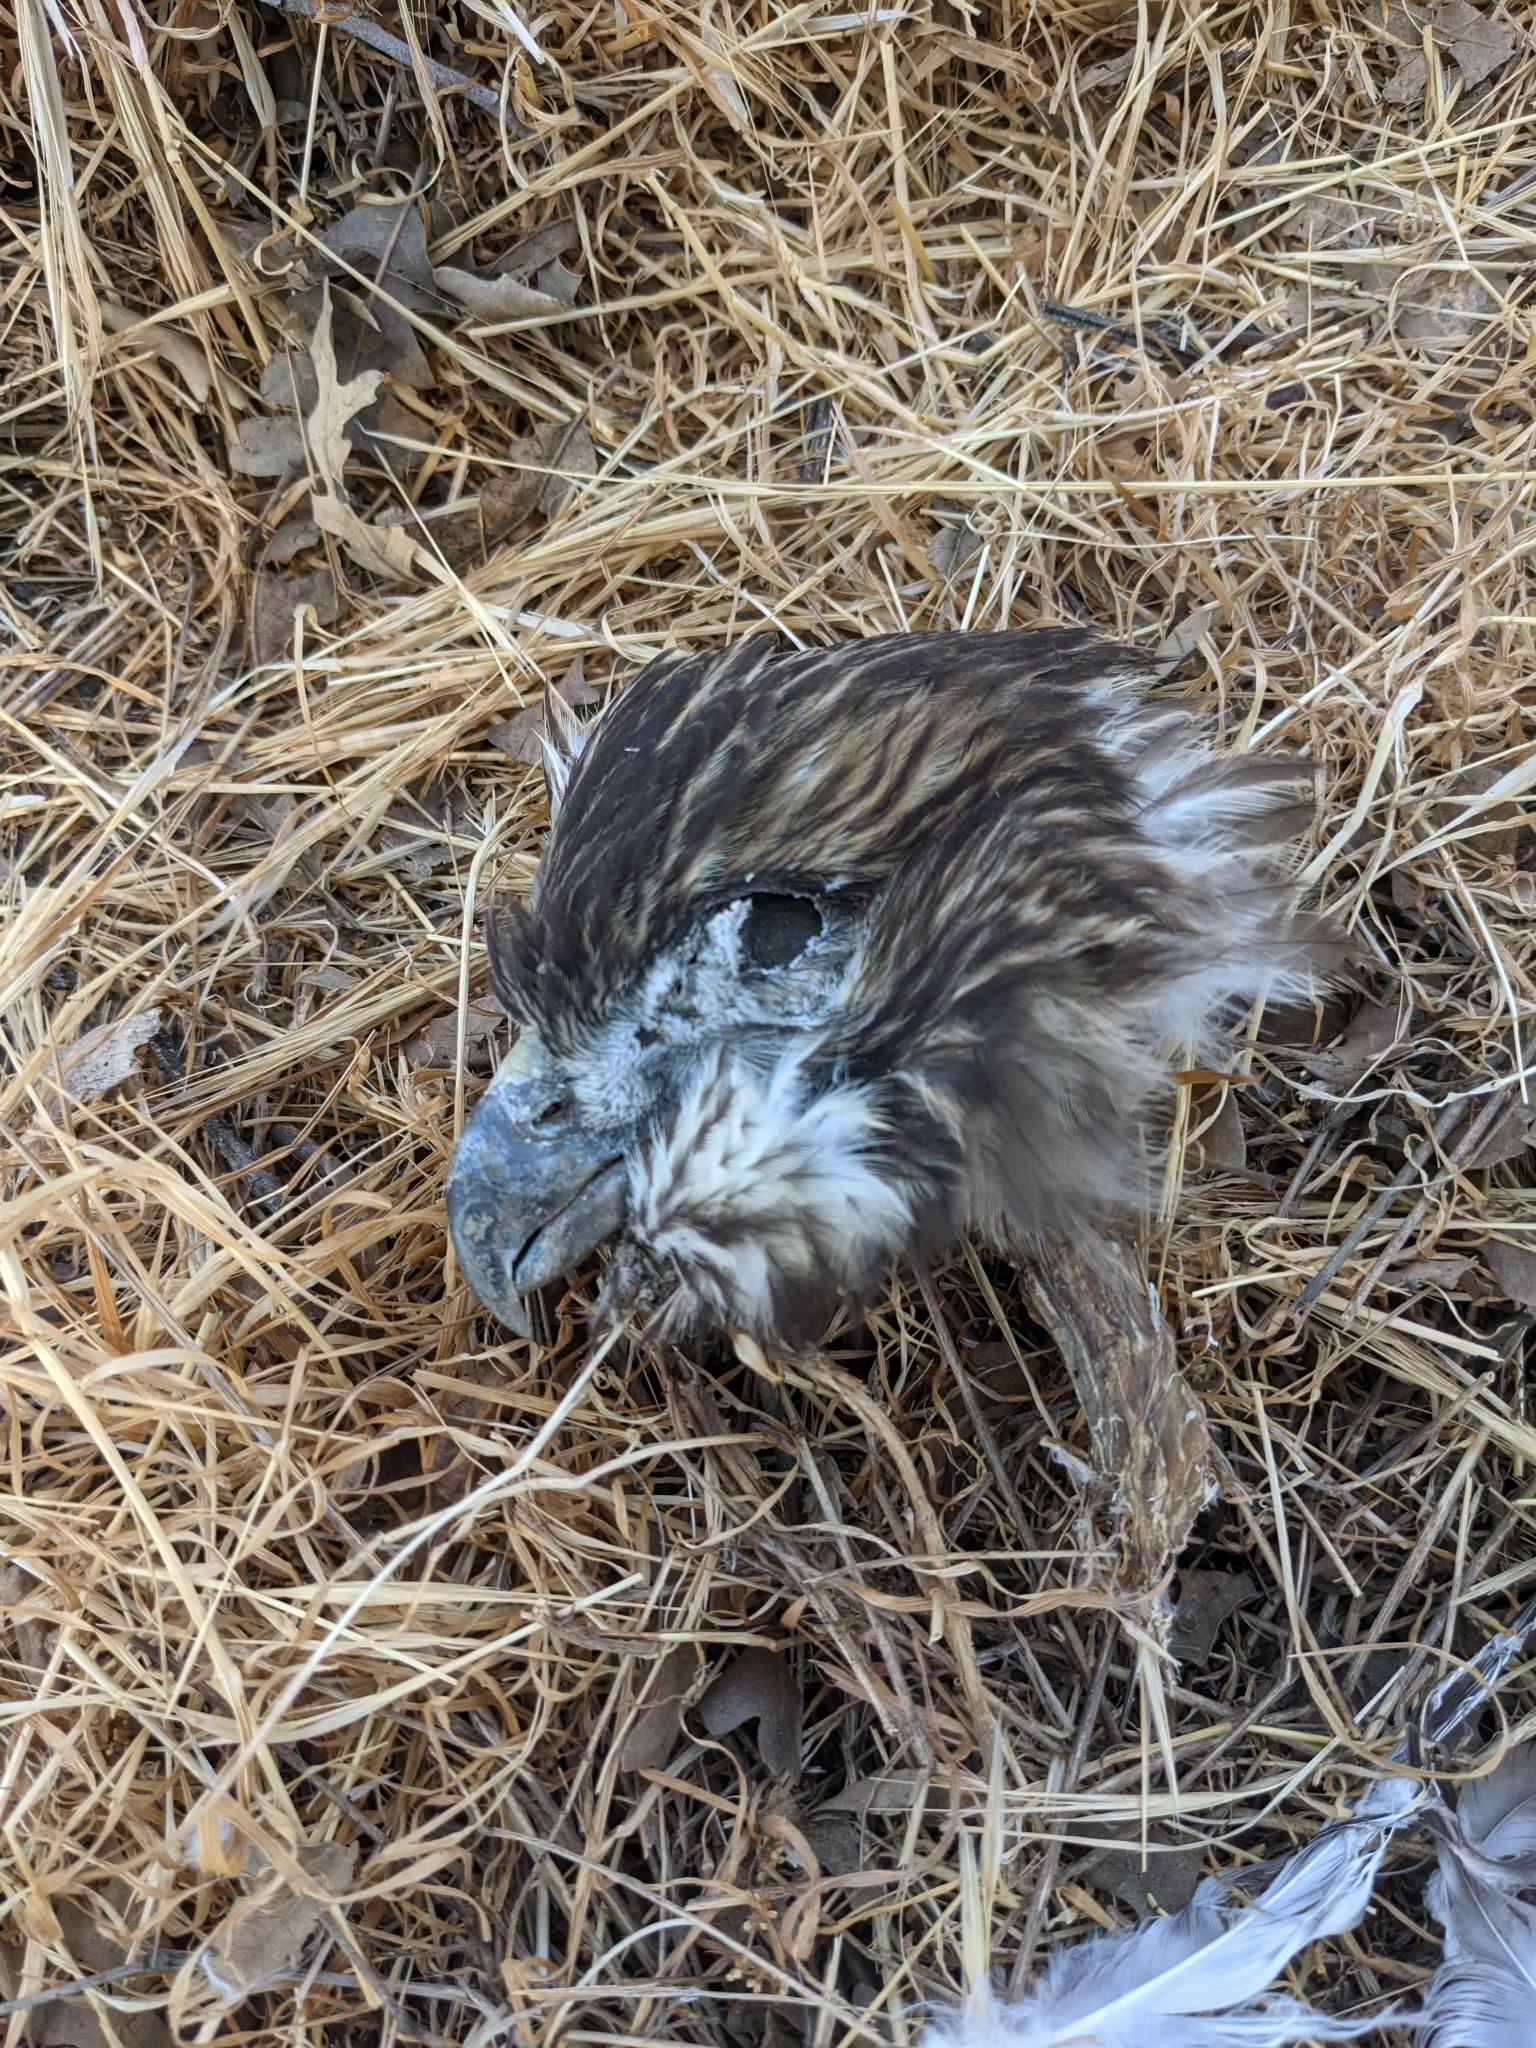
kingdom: Animalia
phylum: Chordata
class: Aves
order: Accipitriformes
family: Accipitridae
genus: Buteo
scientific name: Buteo jamaicensis
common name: Red-tailed hawk
